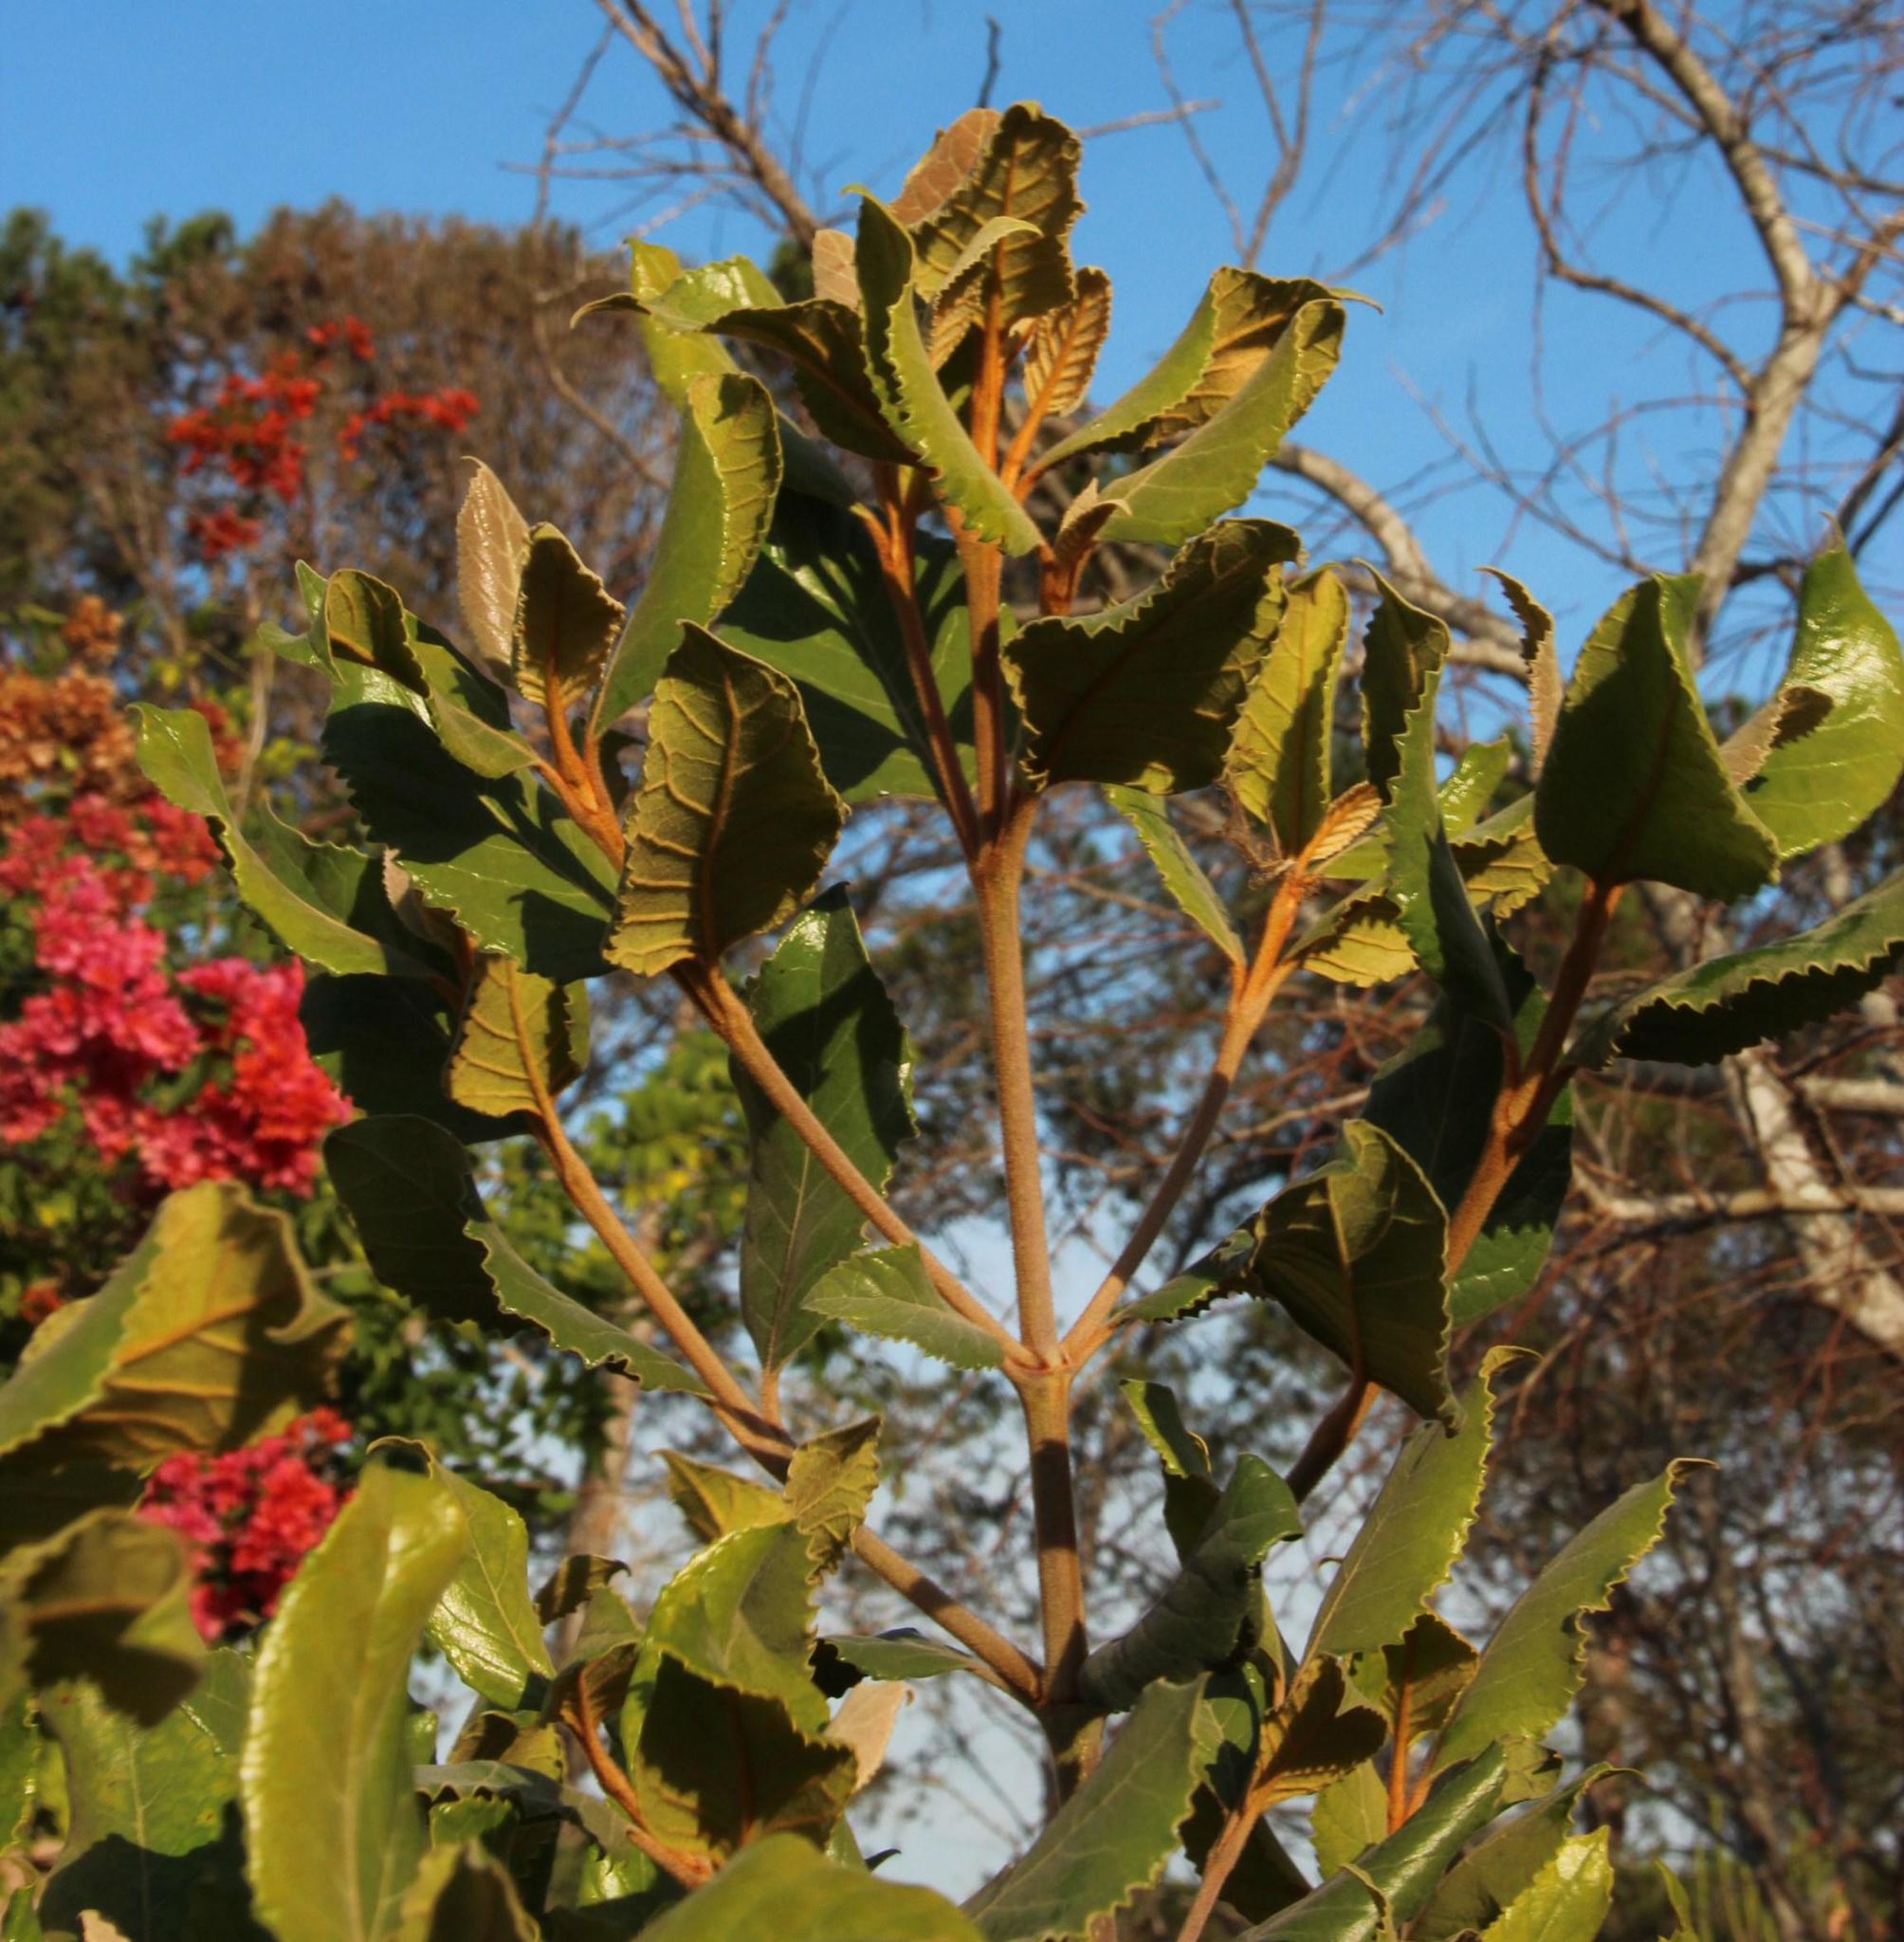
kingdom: Plantae
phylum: Tracheophyta
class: Magnoliopsida
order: Cornales
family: Curtisiaceae
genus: Curtisia
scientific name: Curtisia dentata
